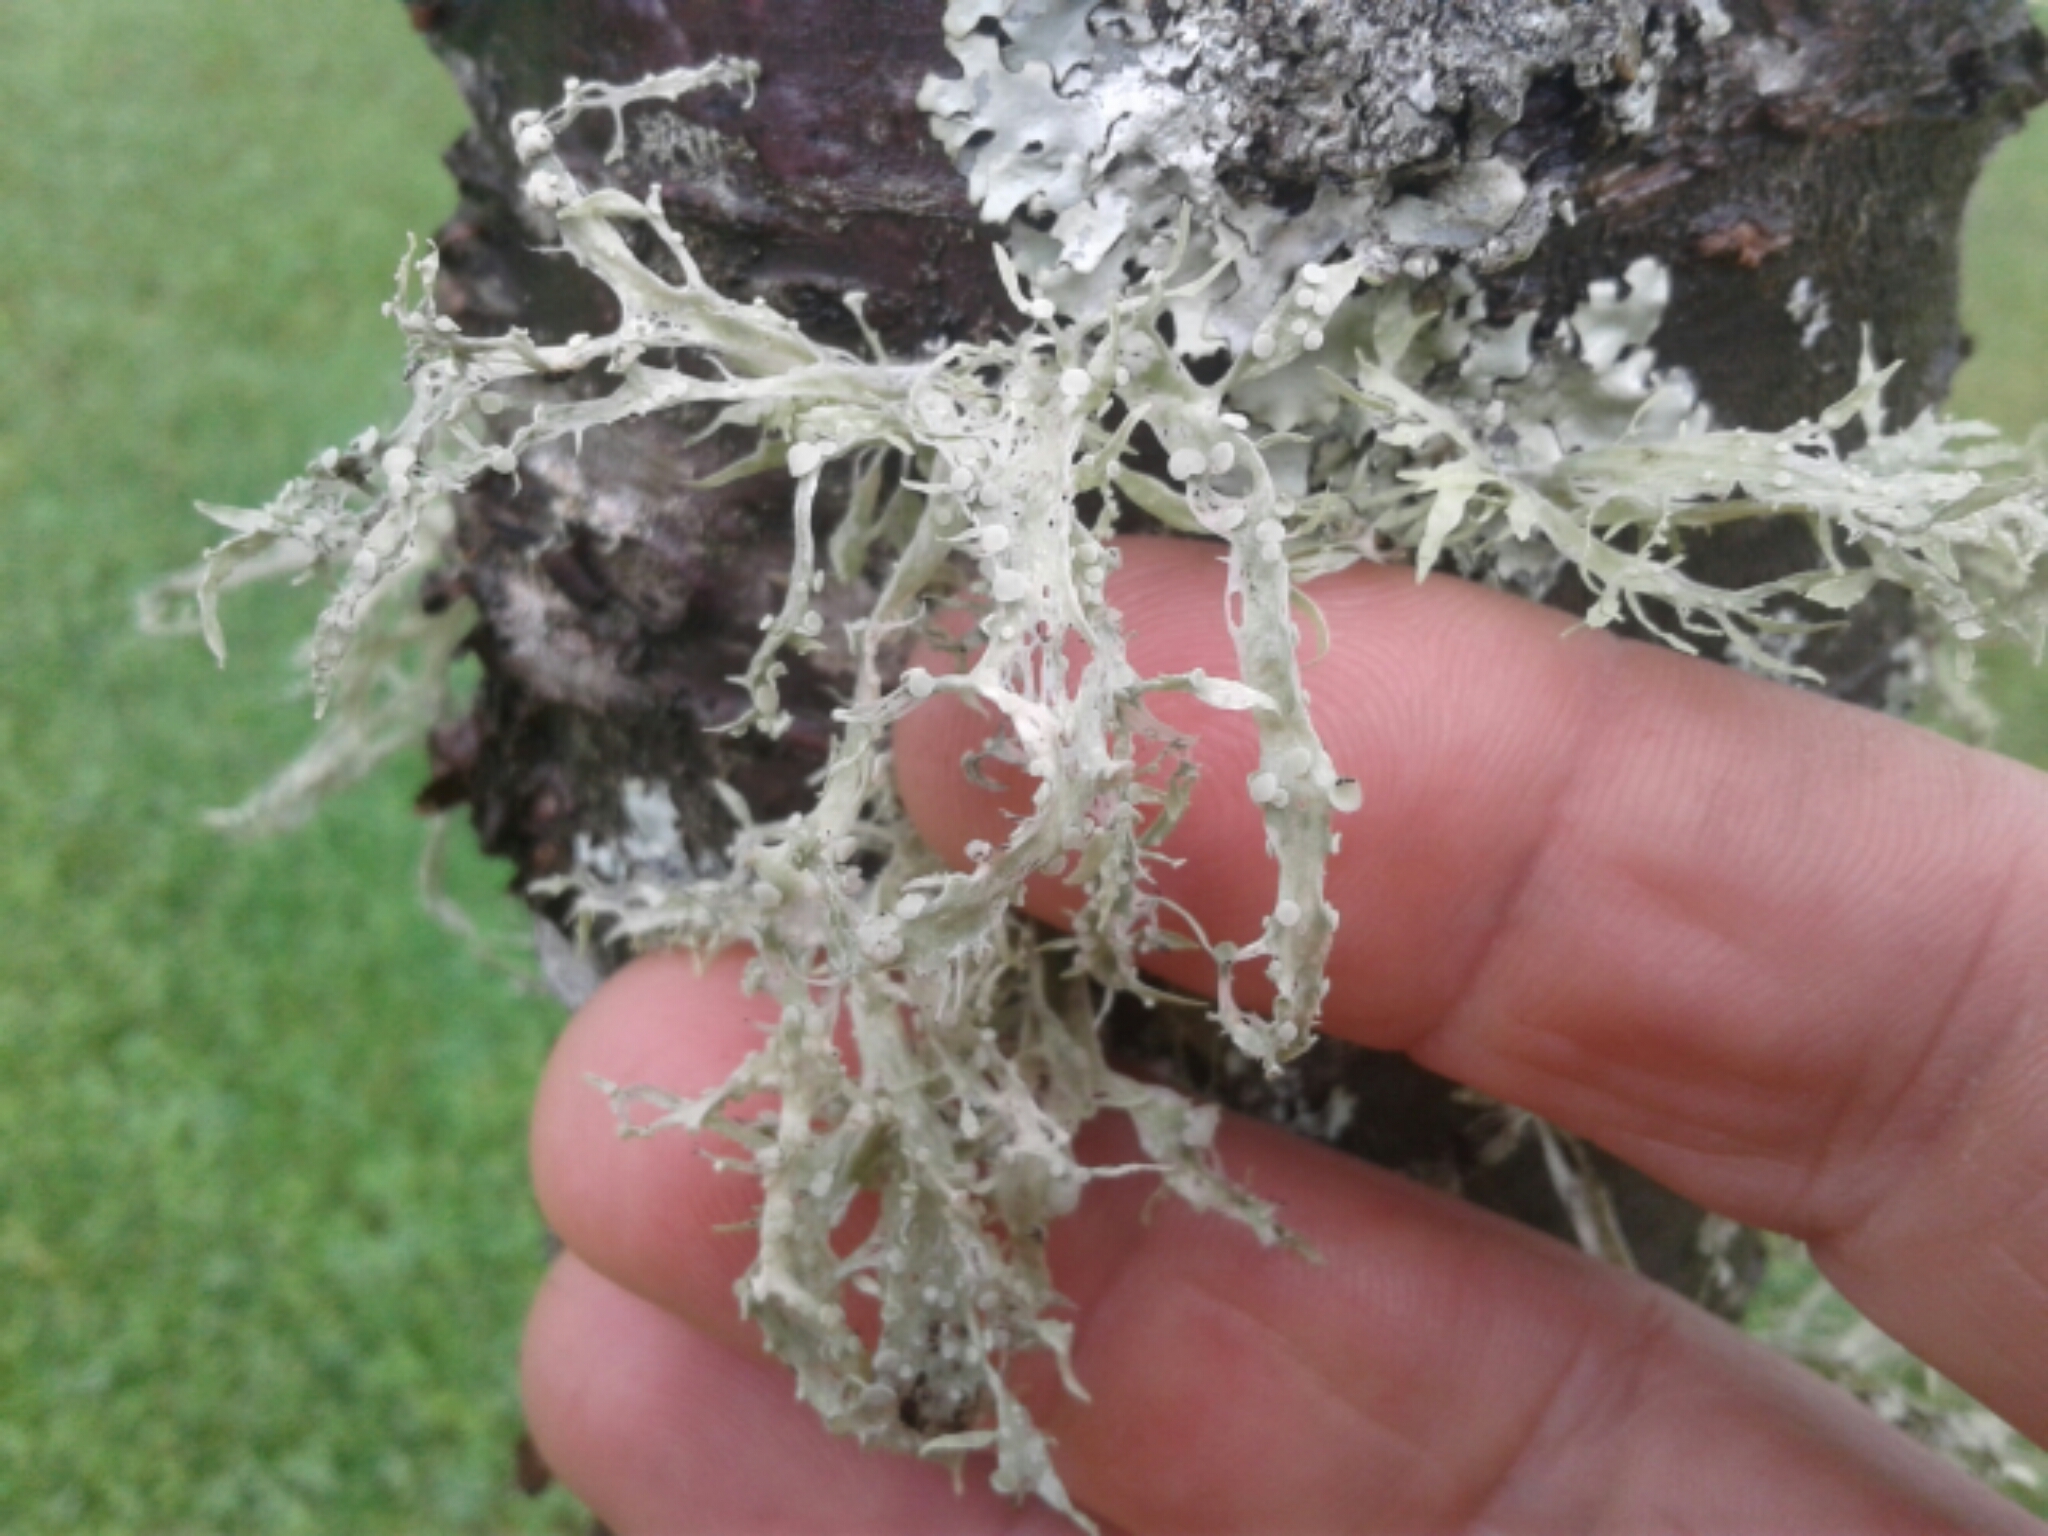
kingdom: Fungi
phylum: Ascomycota
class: Lecanoromycetes
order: Lecanorales
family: Ramalinaceae
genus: Ramalina
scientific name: Ramalina celastri
